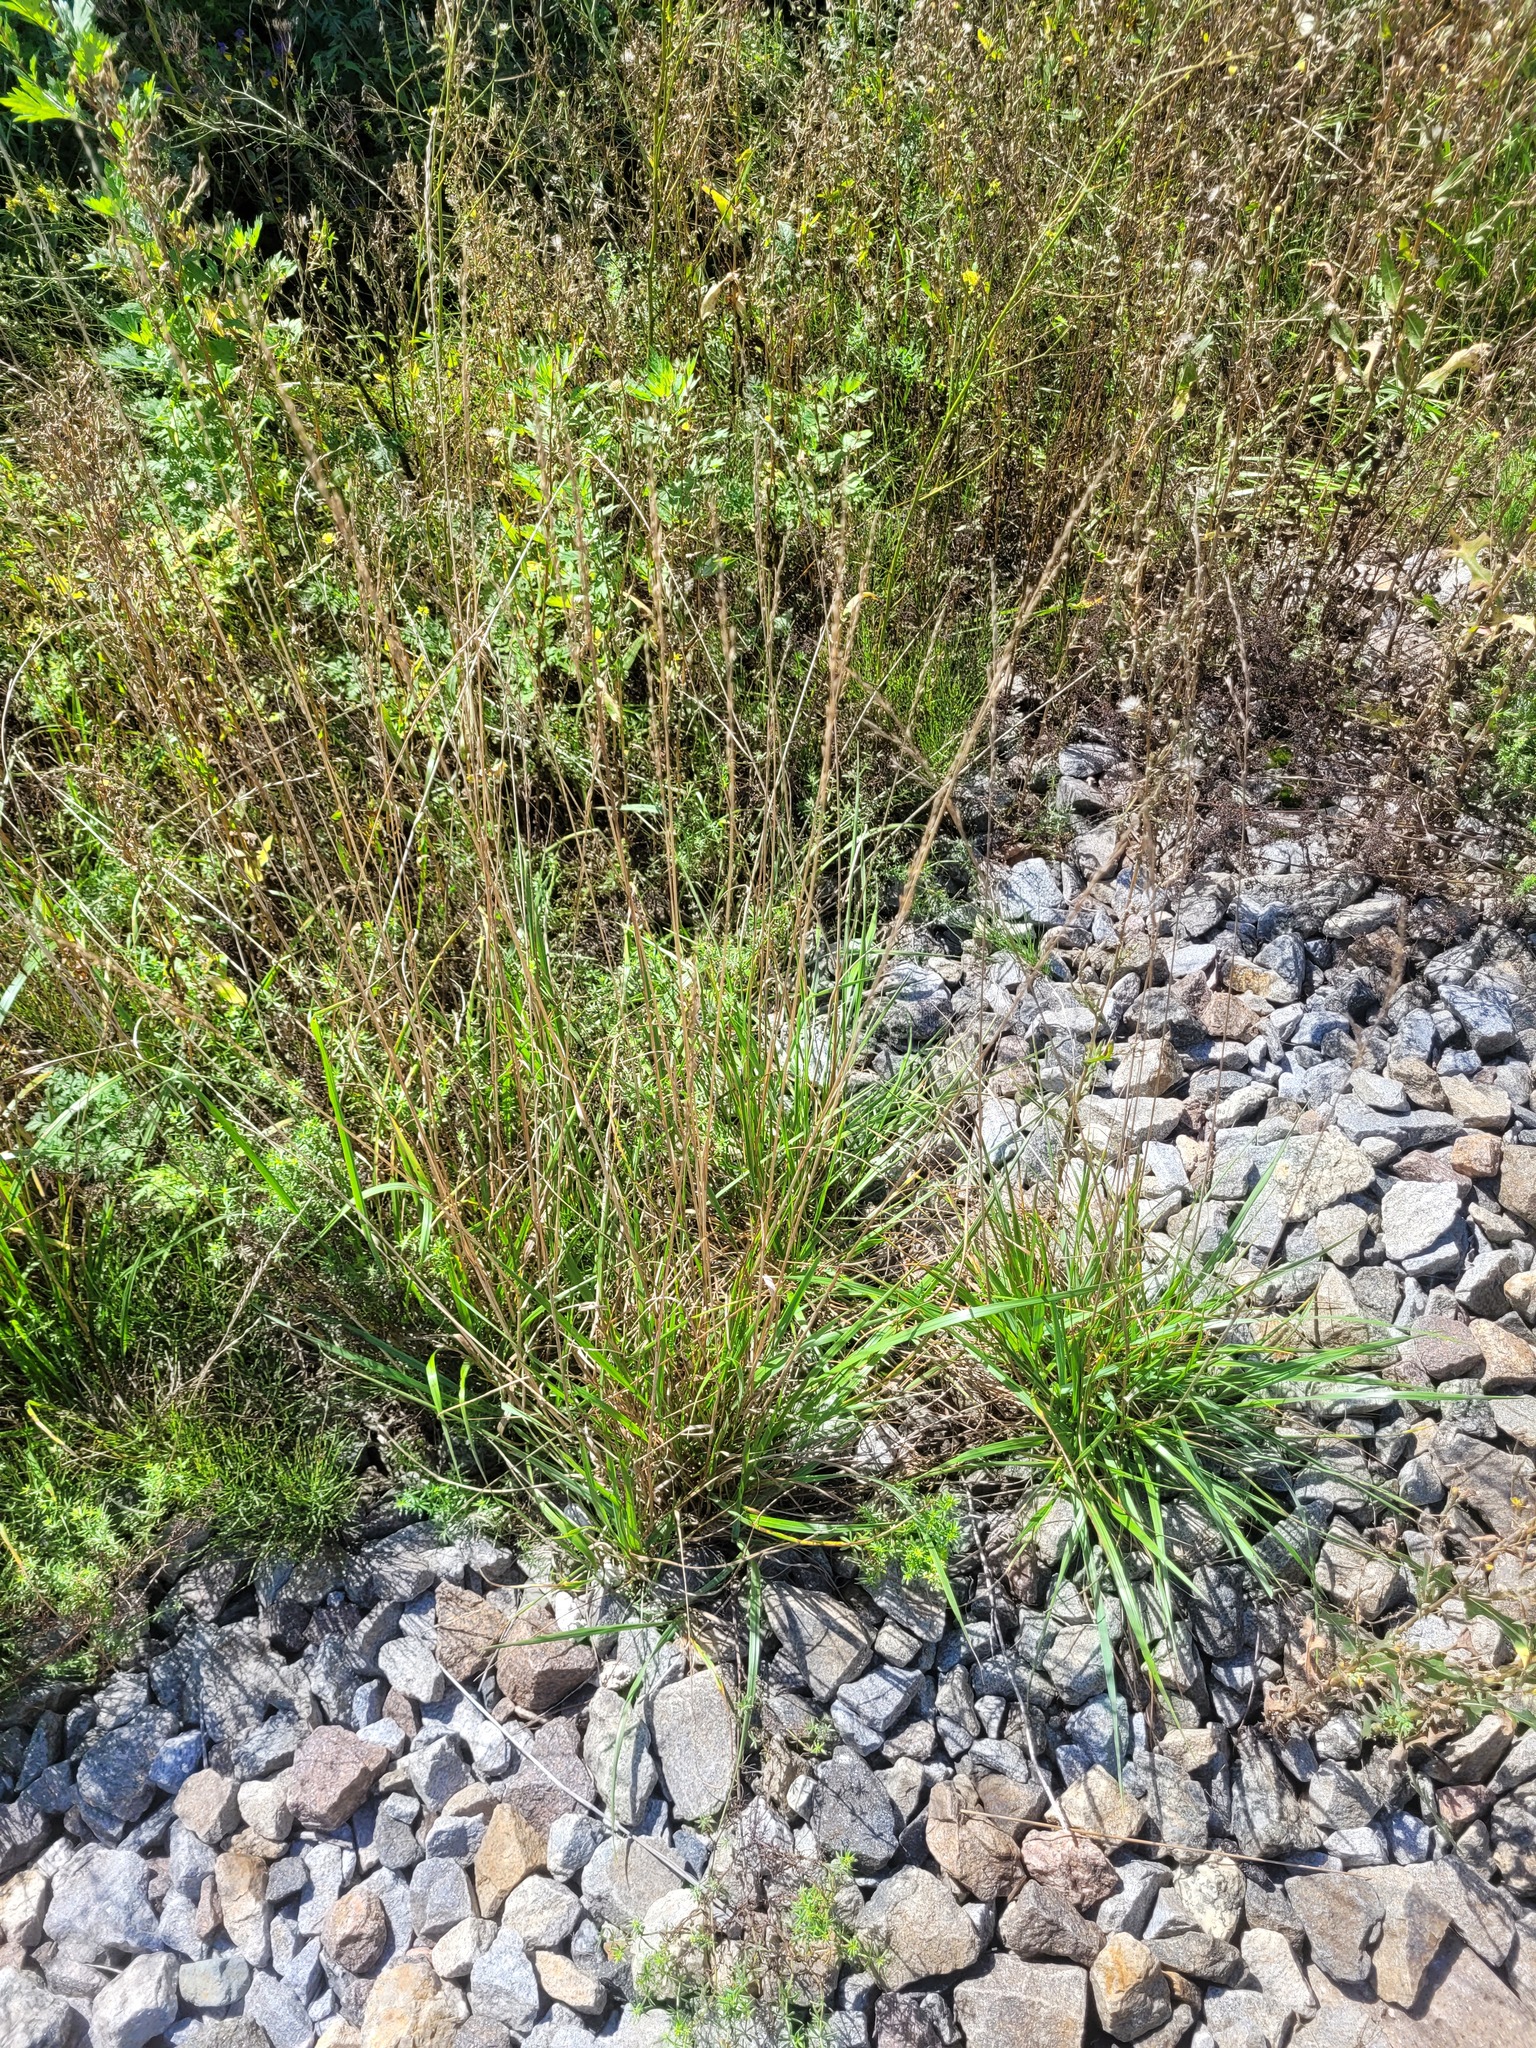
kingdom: Plantae
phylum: Tracheophyta
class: Liliopsida
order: Poales
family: Poaceae
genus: Lolium
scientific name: Lolium pratense
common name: Dover grass
